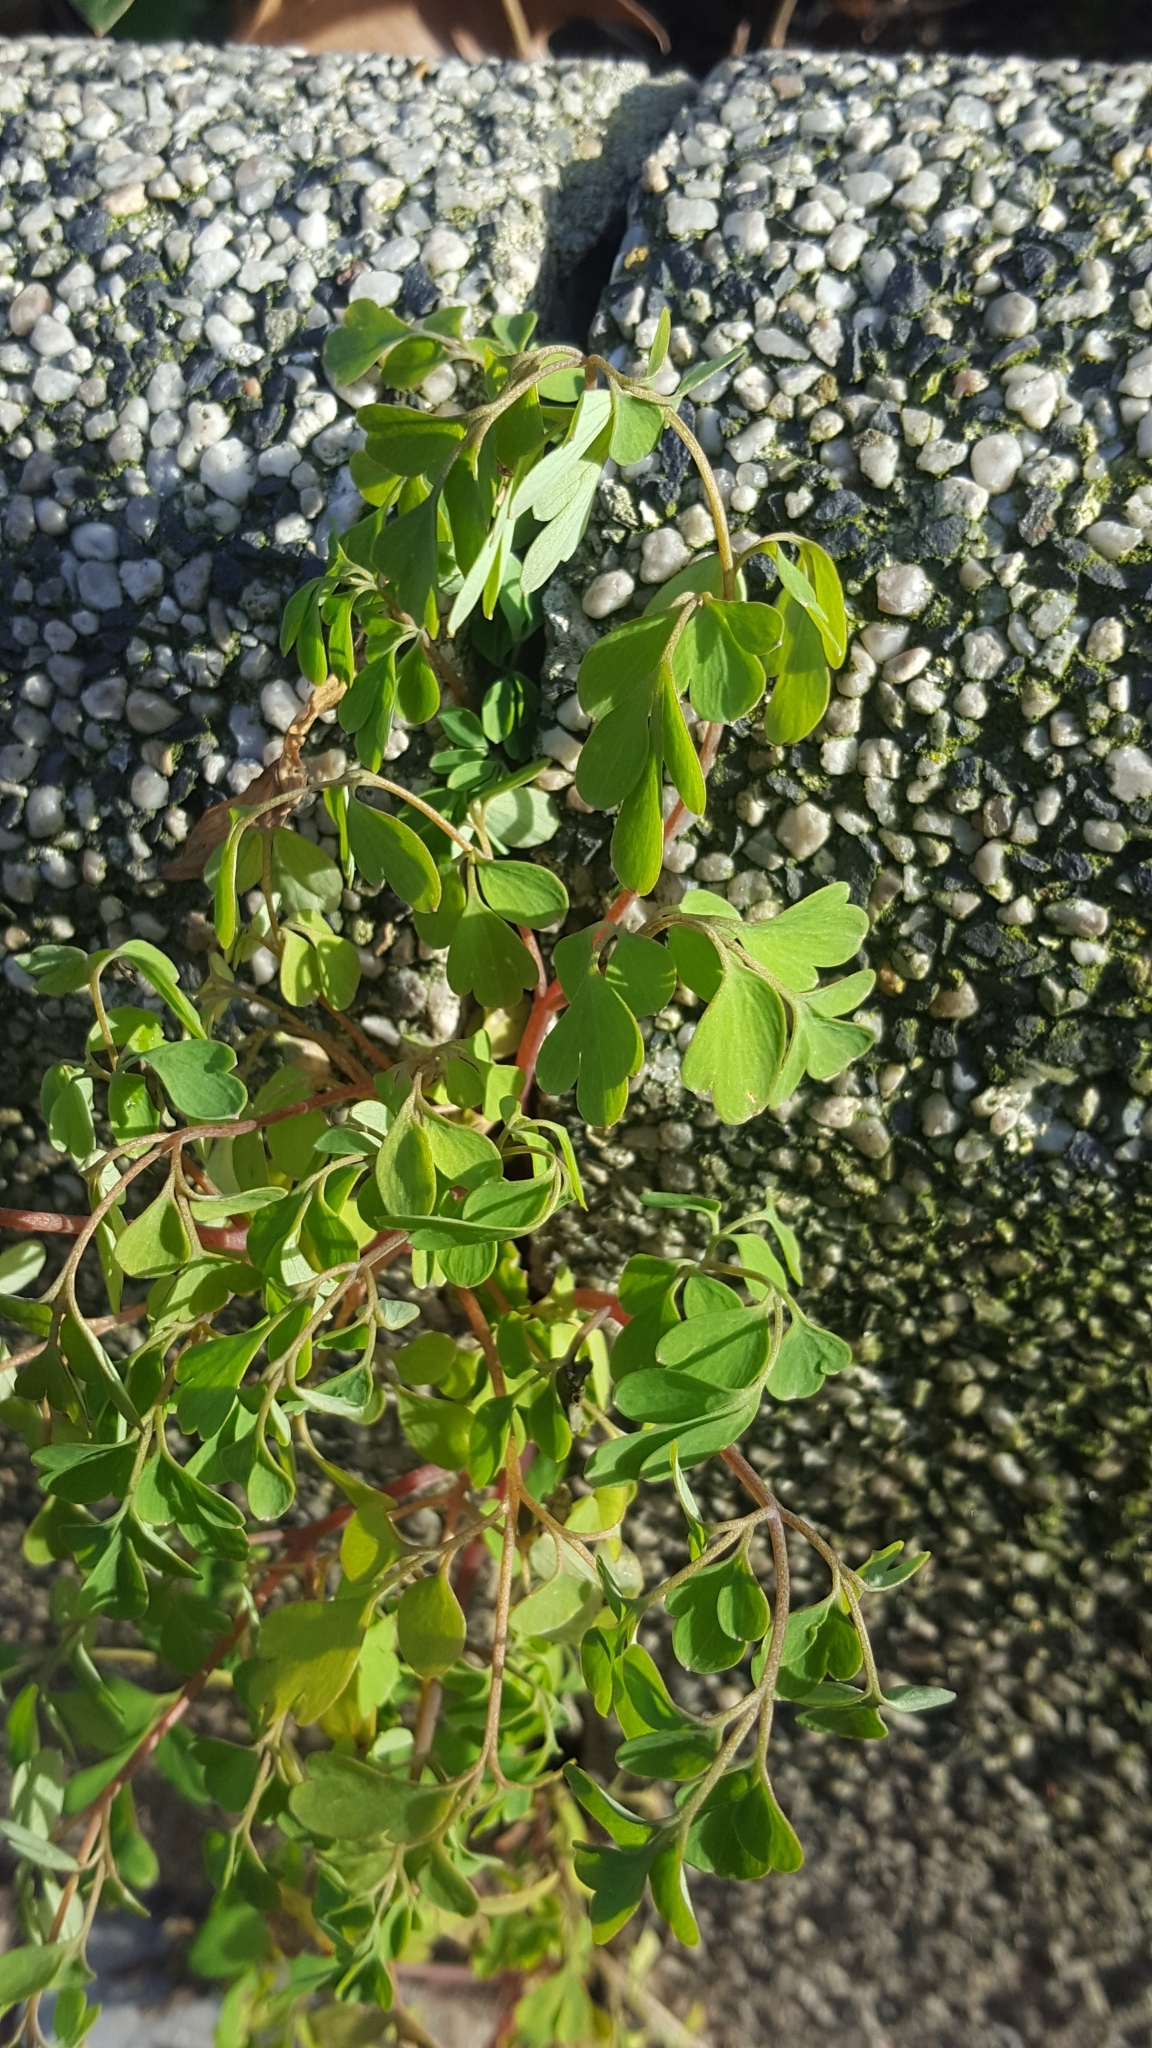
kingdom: Plantae
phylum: Tracheophyta
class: Magnoliopsida
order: Ranunculales
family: Papaveraceae
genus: Pseudofumaria
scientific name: Pseudofumaria lutea
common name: Yellow corydalis
